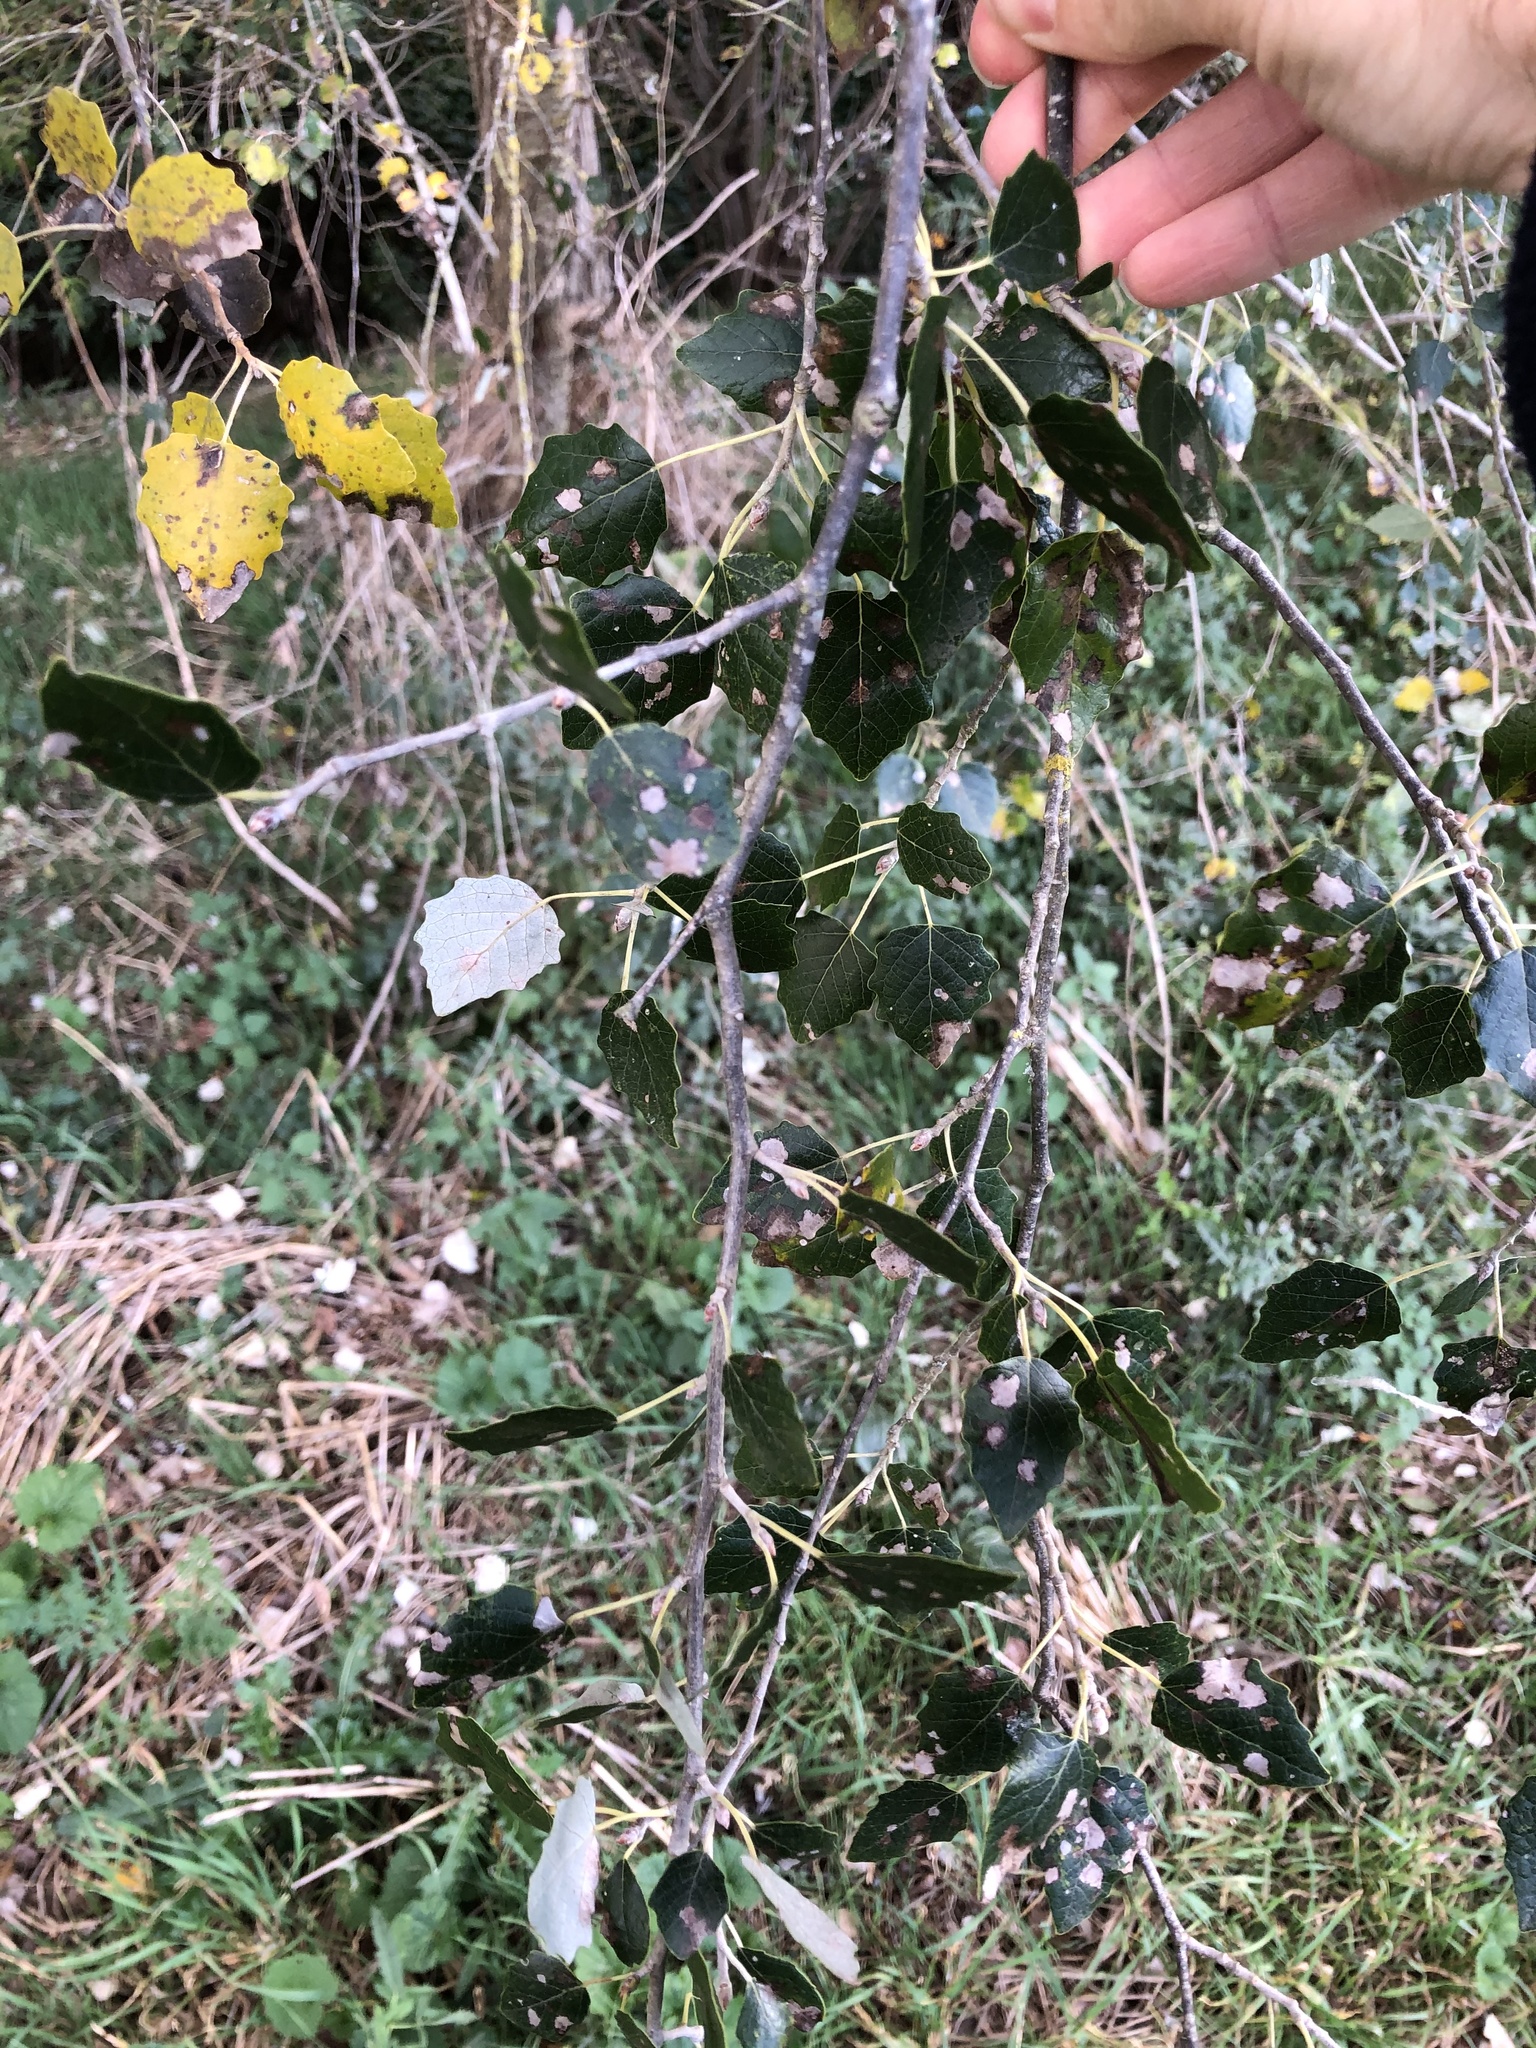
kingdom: Plantae
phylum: Tracheophyta
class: Magnoliopsida
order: Malpighiales
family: Salicaceae
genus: Populus
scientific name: Populus alba
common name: White poplar
